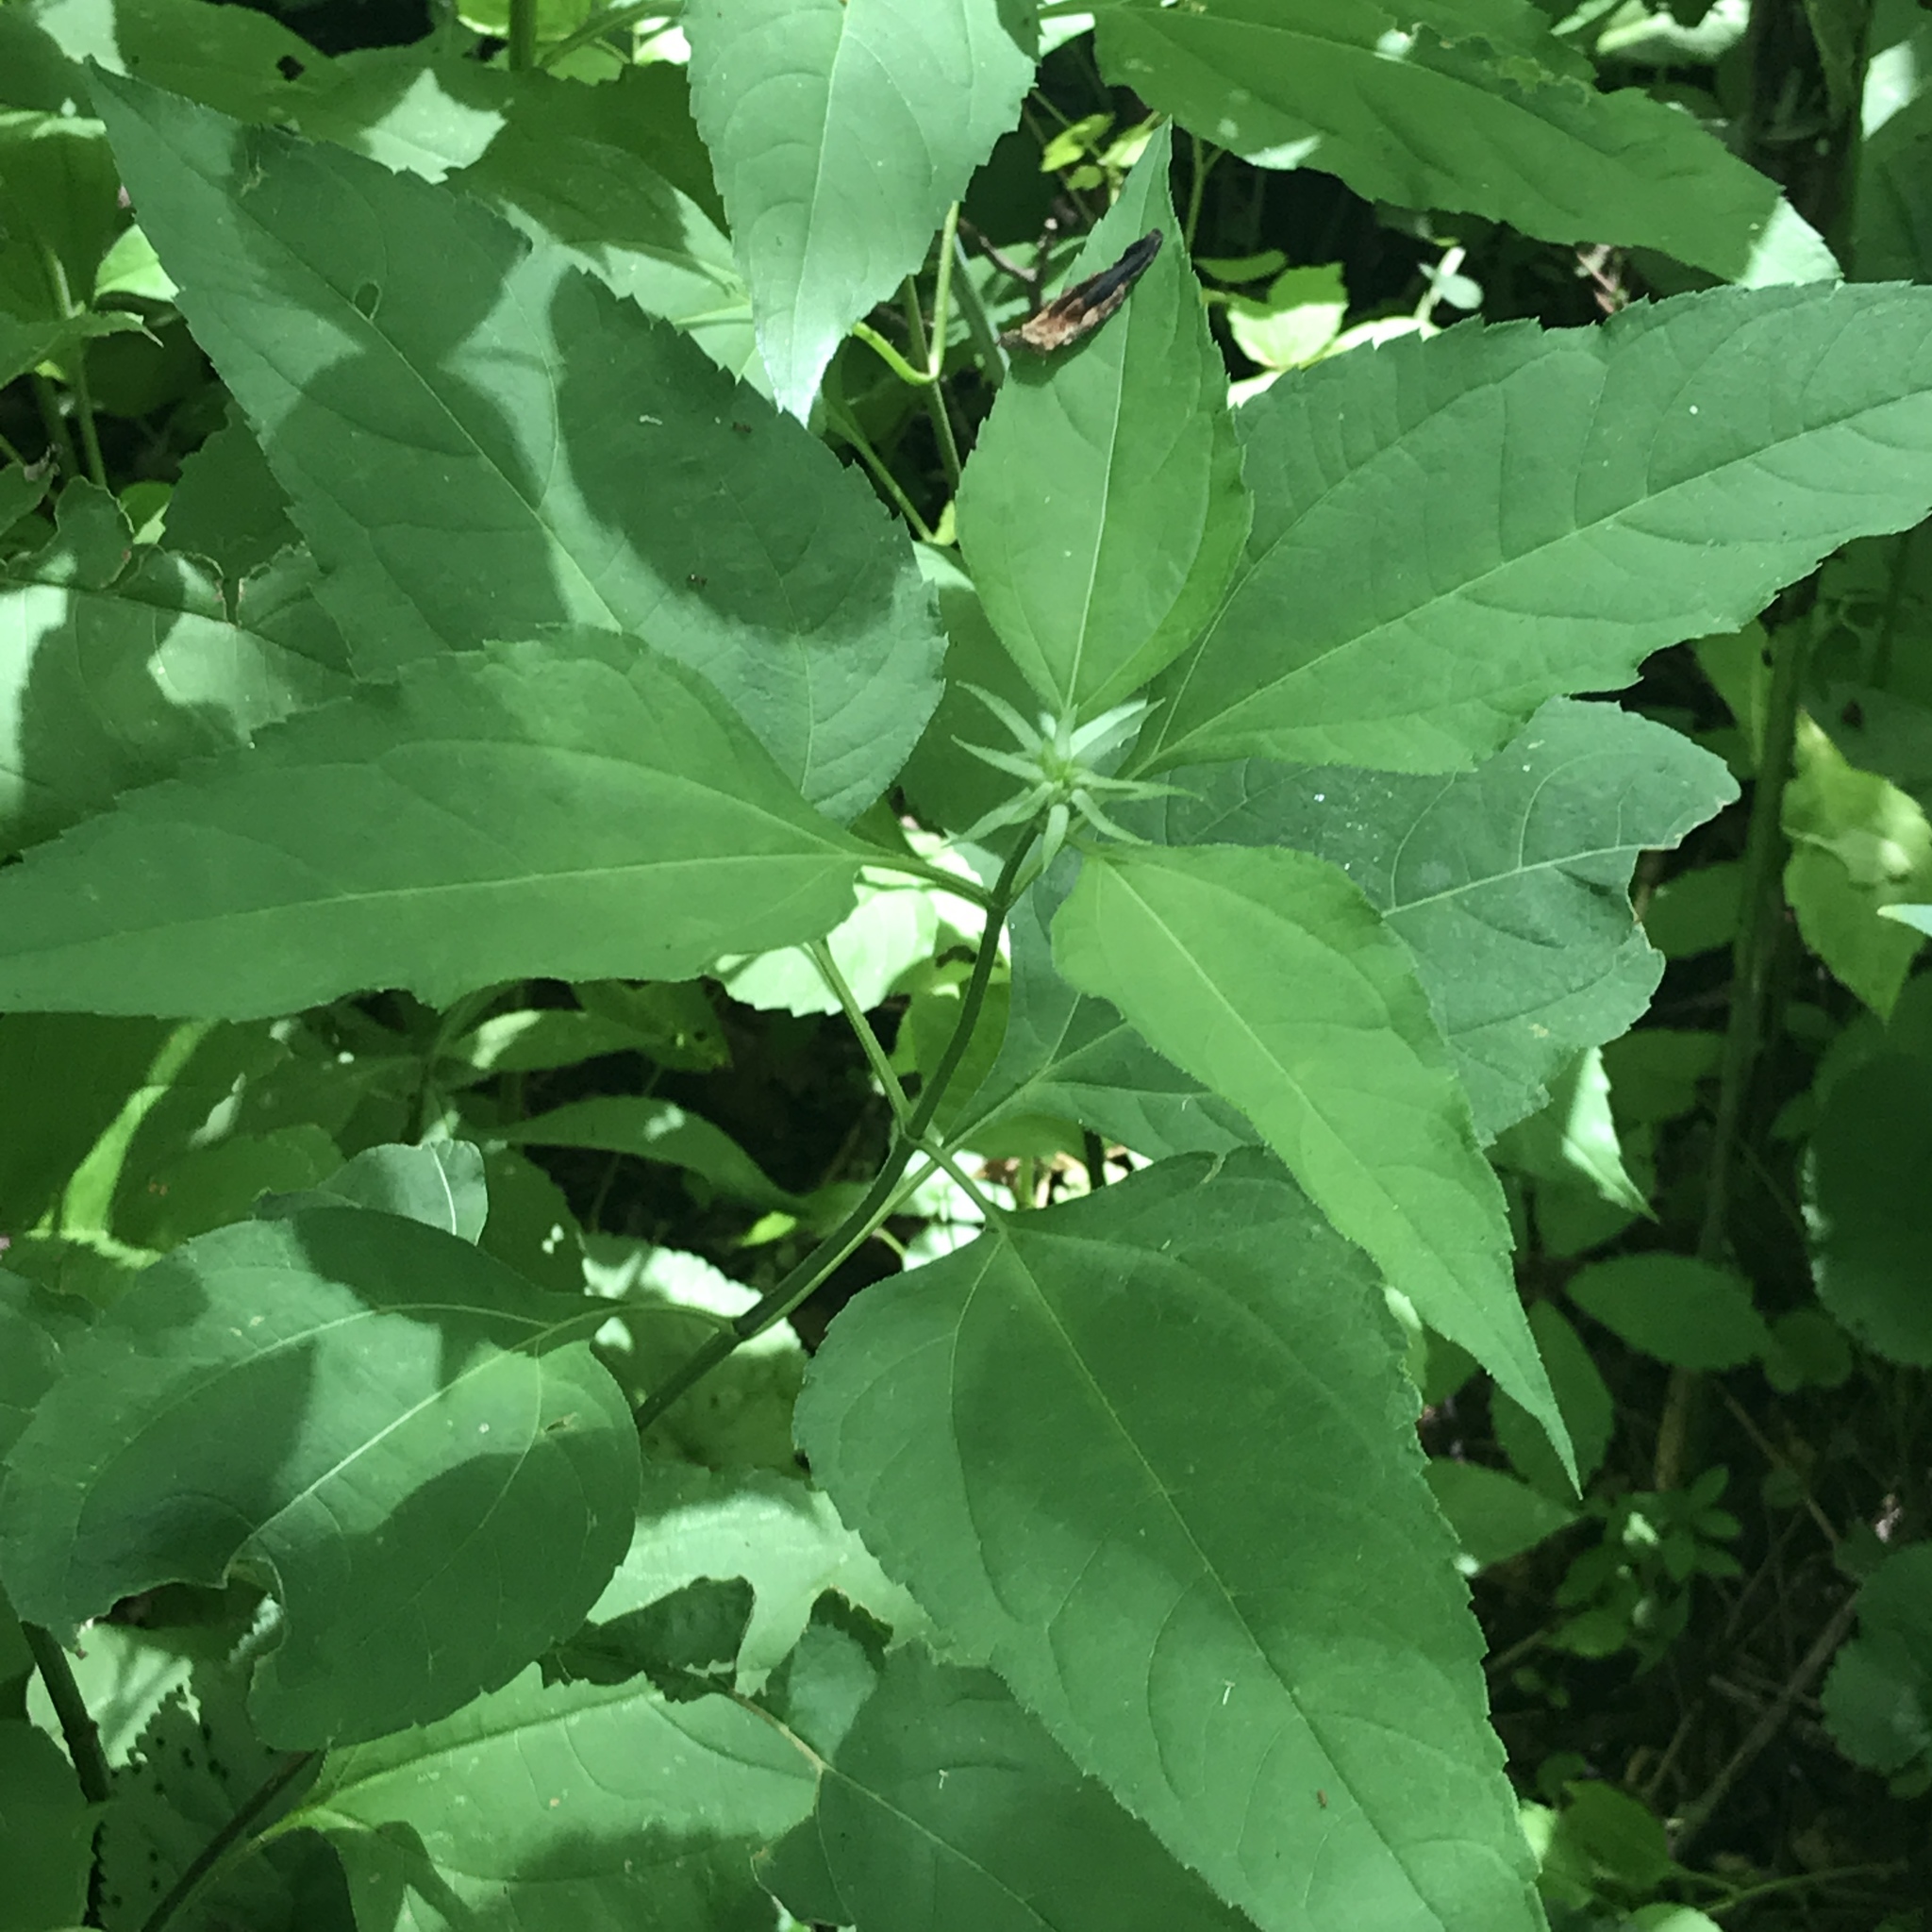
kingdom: Plantae
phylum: Tracheophyta
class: Magnoliopsida
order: Asterales
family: Asteraceae
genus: Helianthus
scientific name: Helianthus decapetalus
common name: Thin-leaved sunflower
